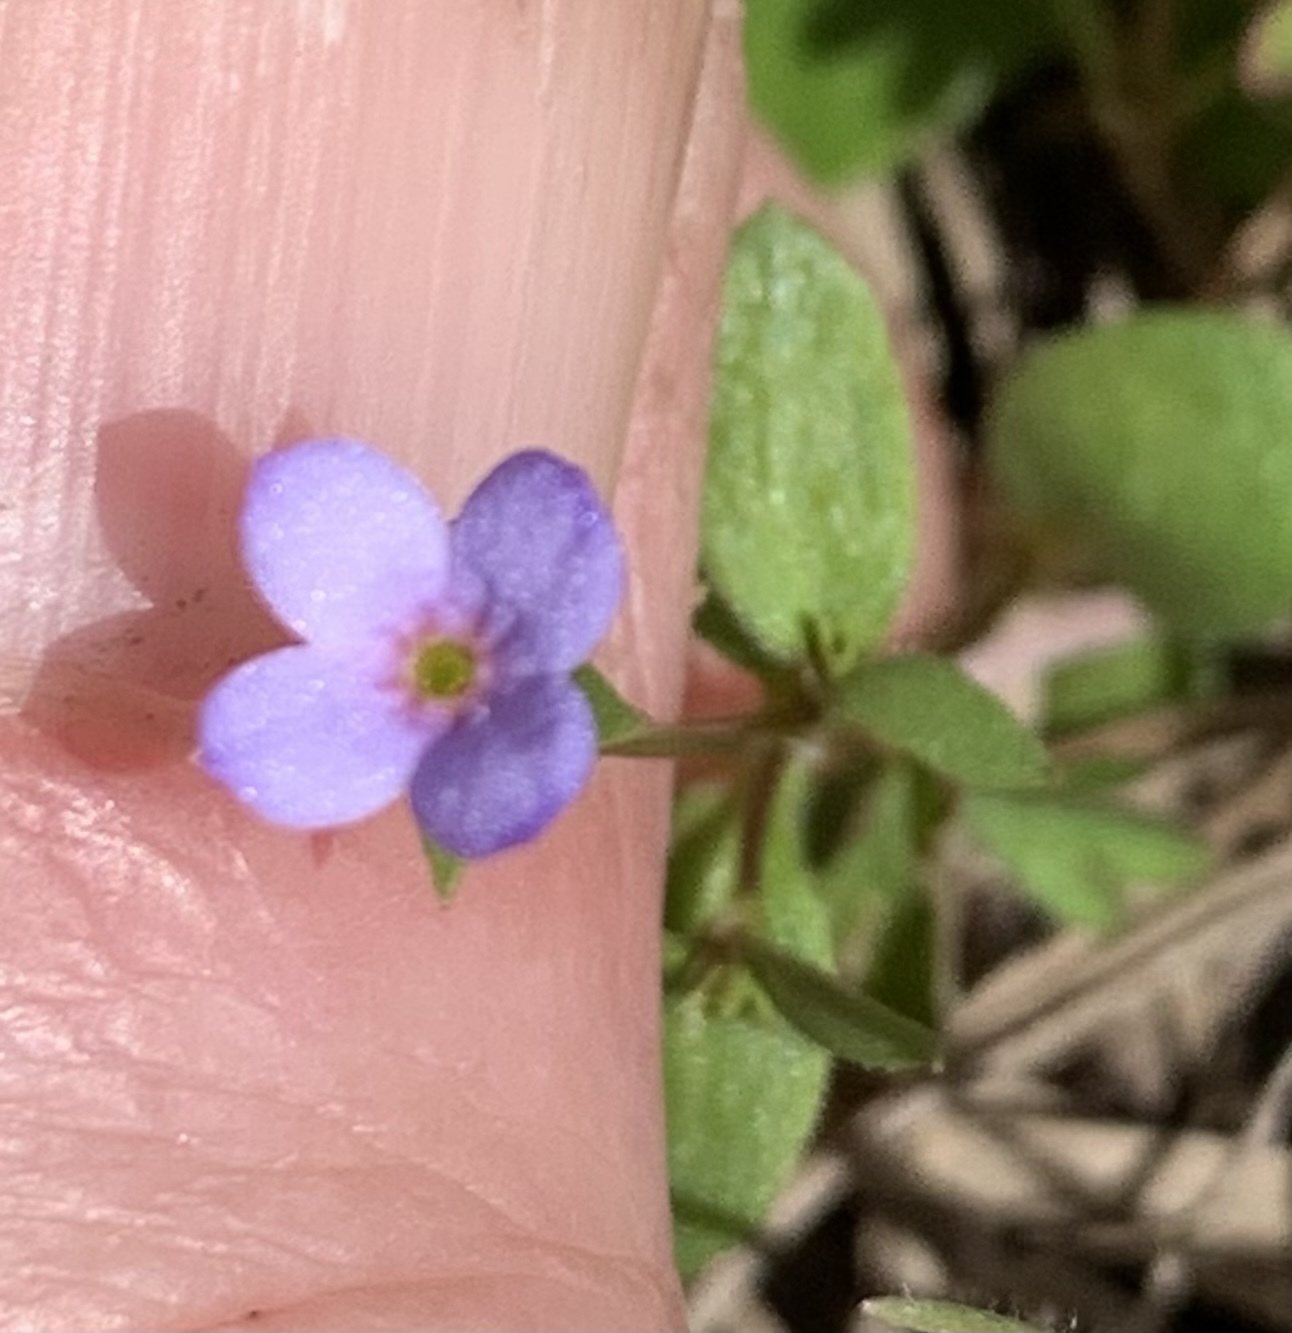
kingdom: Plantae
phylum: Tracheophyta
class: Magnoliopsida
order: Gentianales
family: Rubiaceae
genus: Houstonia
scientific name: Houstonia pusilla
